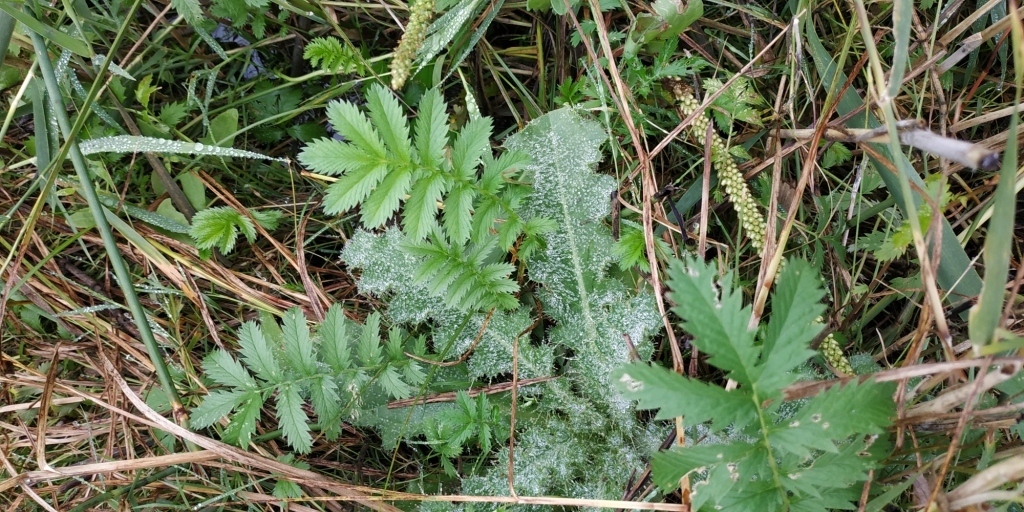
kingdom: Plantae
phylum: Tracheophyta
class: Magnoliopsida
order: Rosales
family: Rosaceae
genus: Argentina
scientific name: Argentina anserina
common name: Common silverweed
